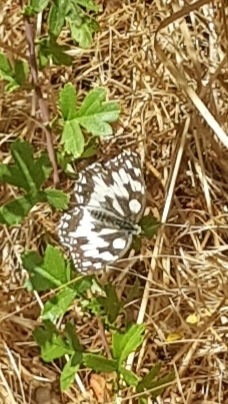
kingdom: Animalia
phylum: Arthropoda
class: Insecta
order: Lepidoptera
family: Nymphalidae
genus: Melanargia
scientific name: Melanargia galathea
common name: Marbled white
